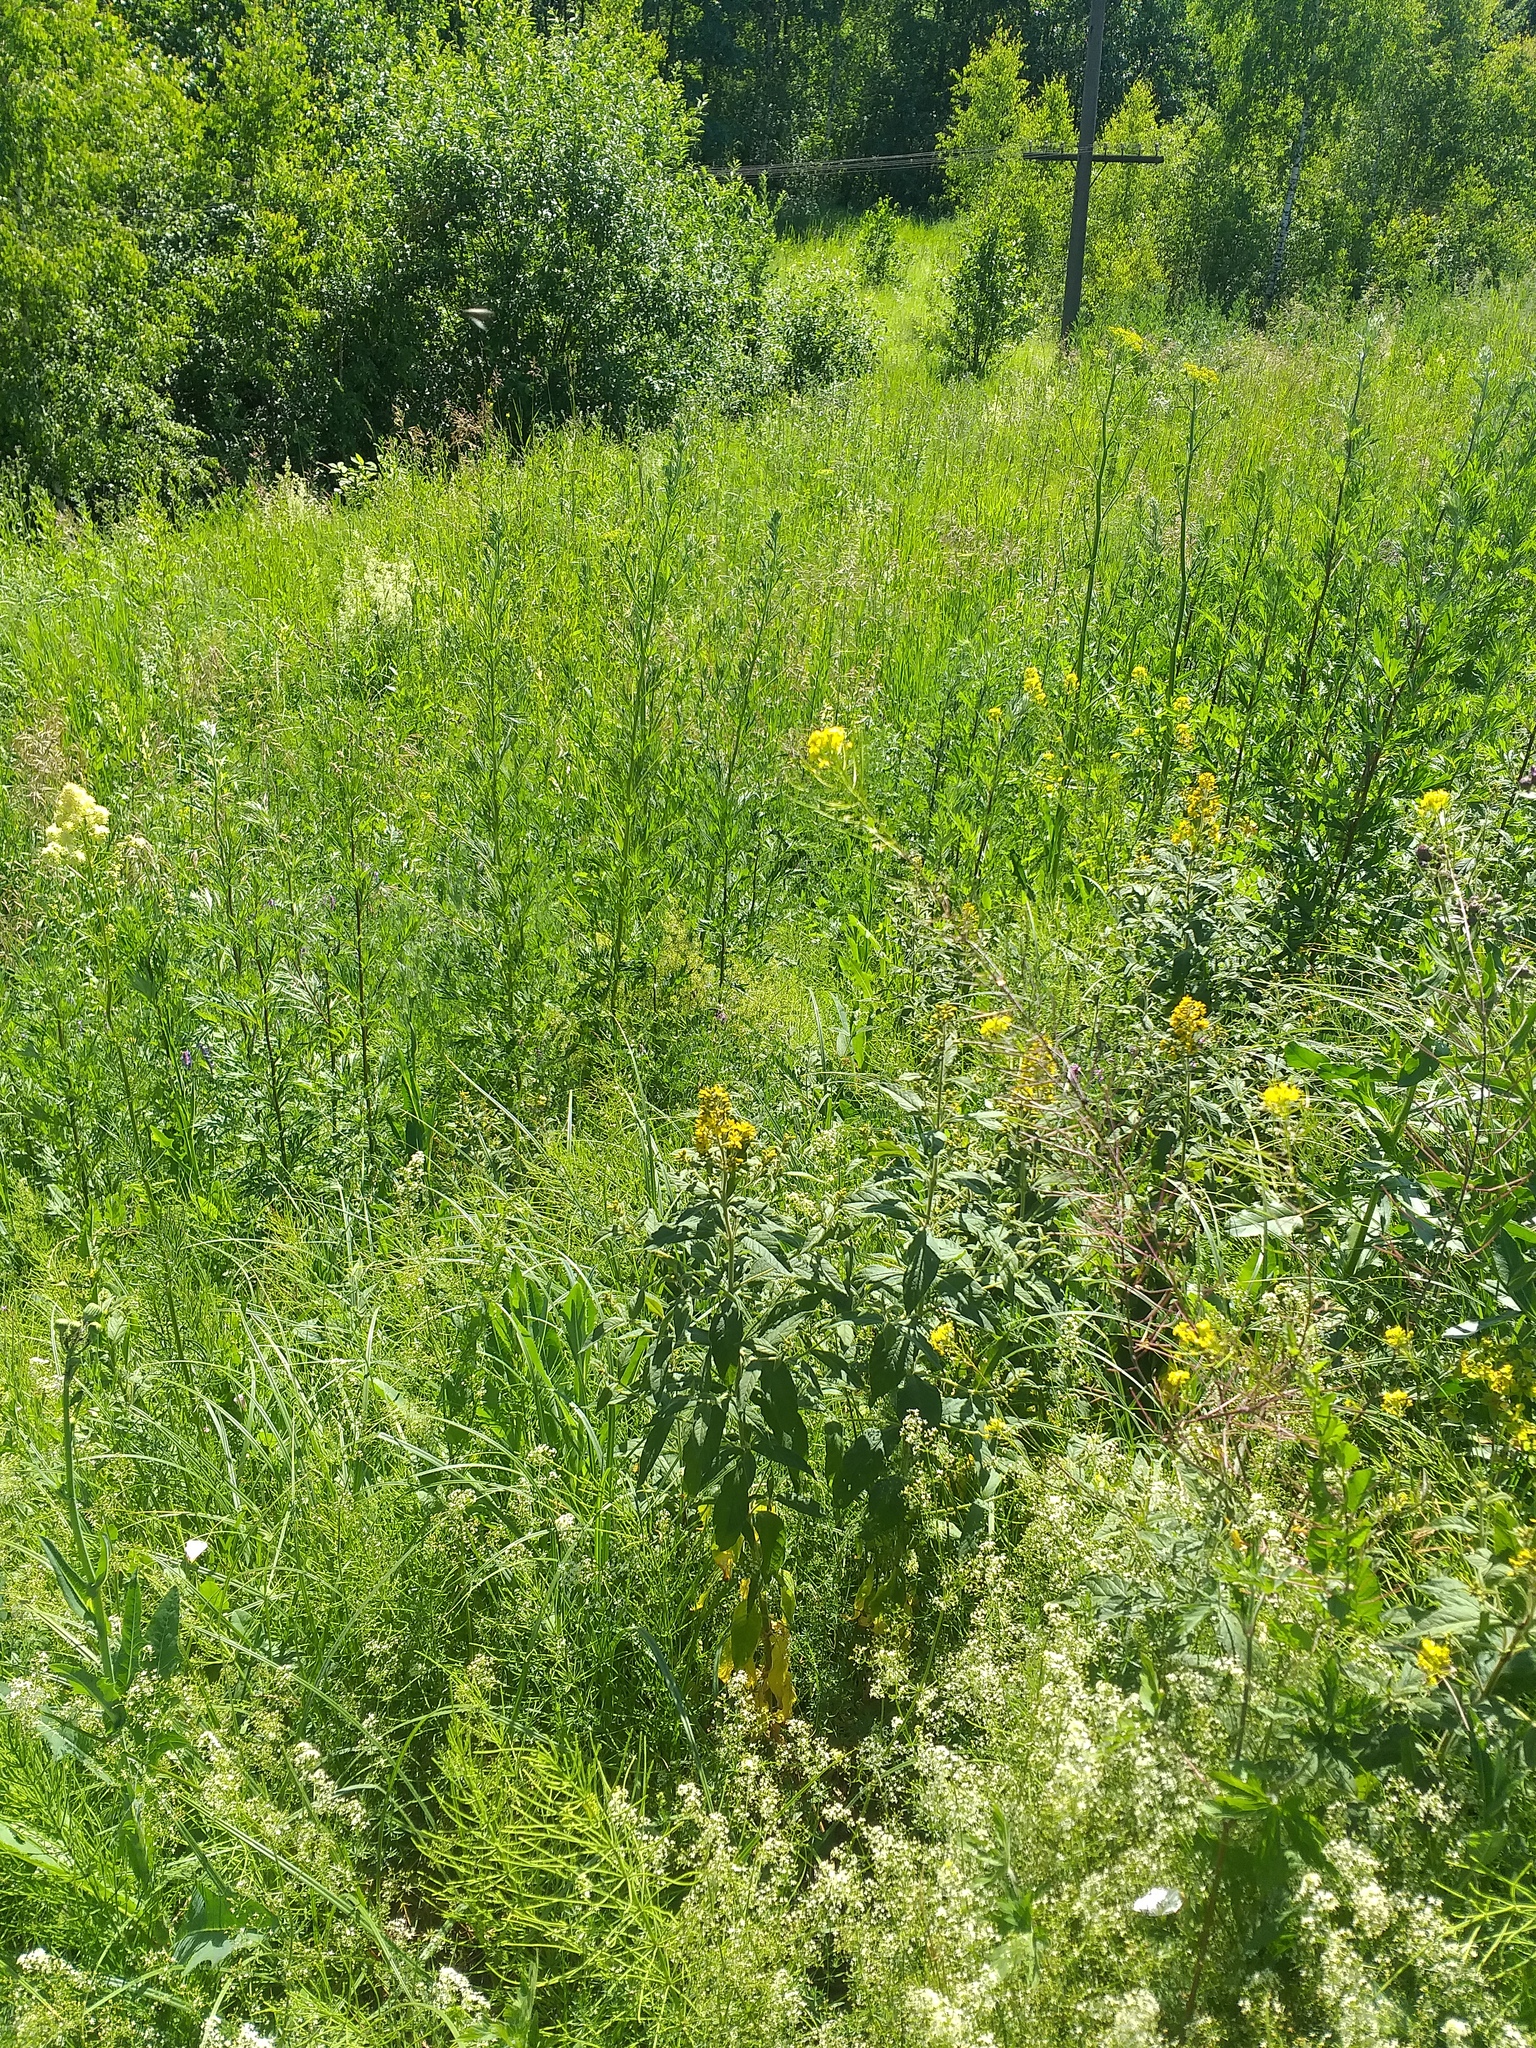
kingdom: Plantae
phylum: Tracheophyta
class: Magnoliopsida
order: Ericales
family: Primulaceae
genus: Lysimachia
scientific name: Lysimachia vulgaris
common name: Yellow loosestrife
